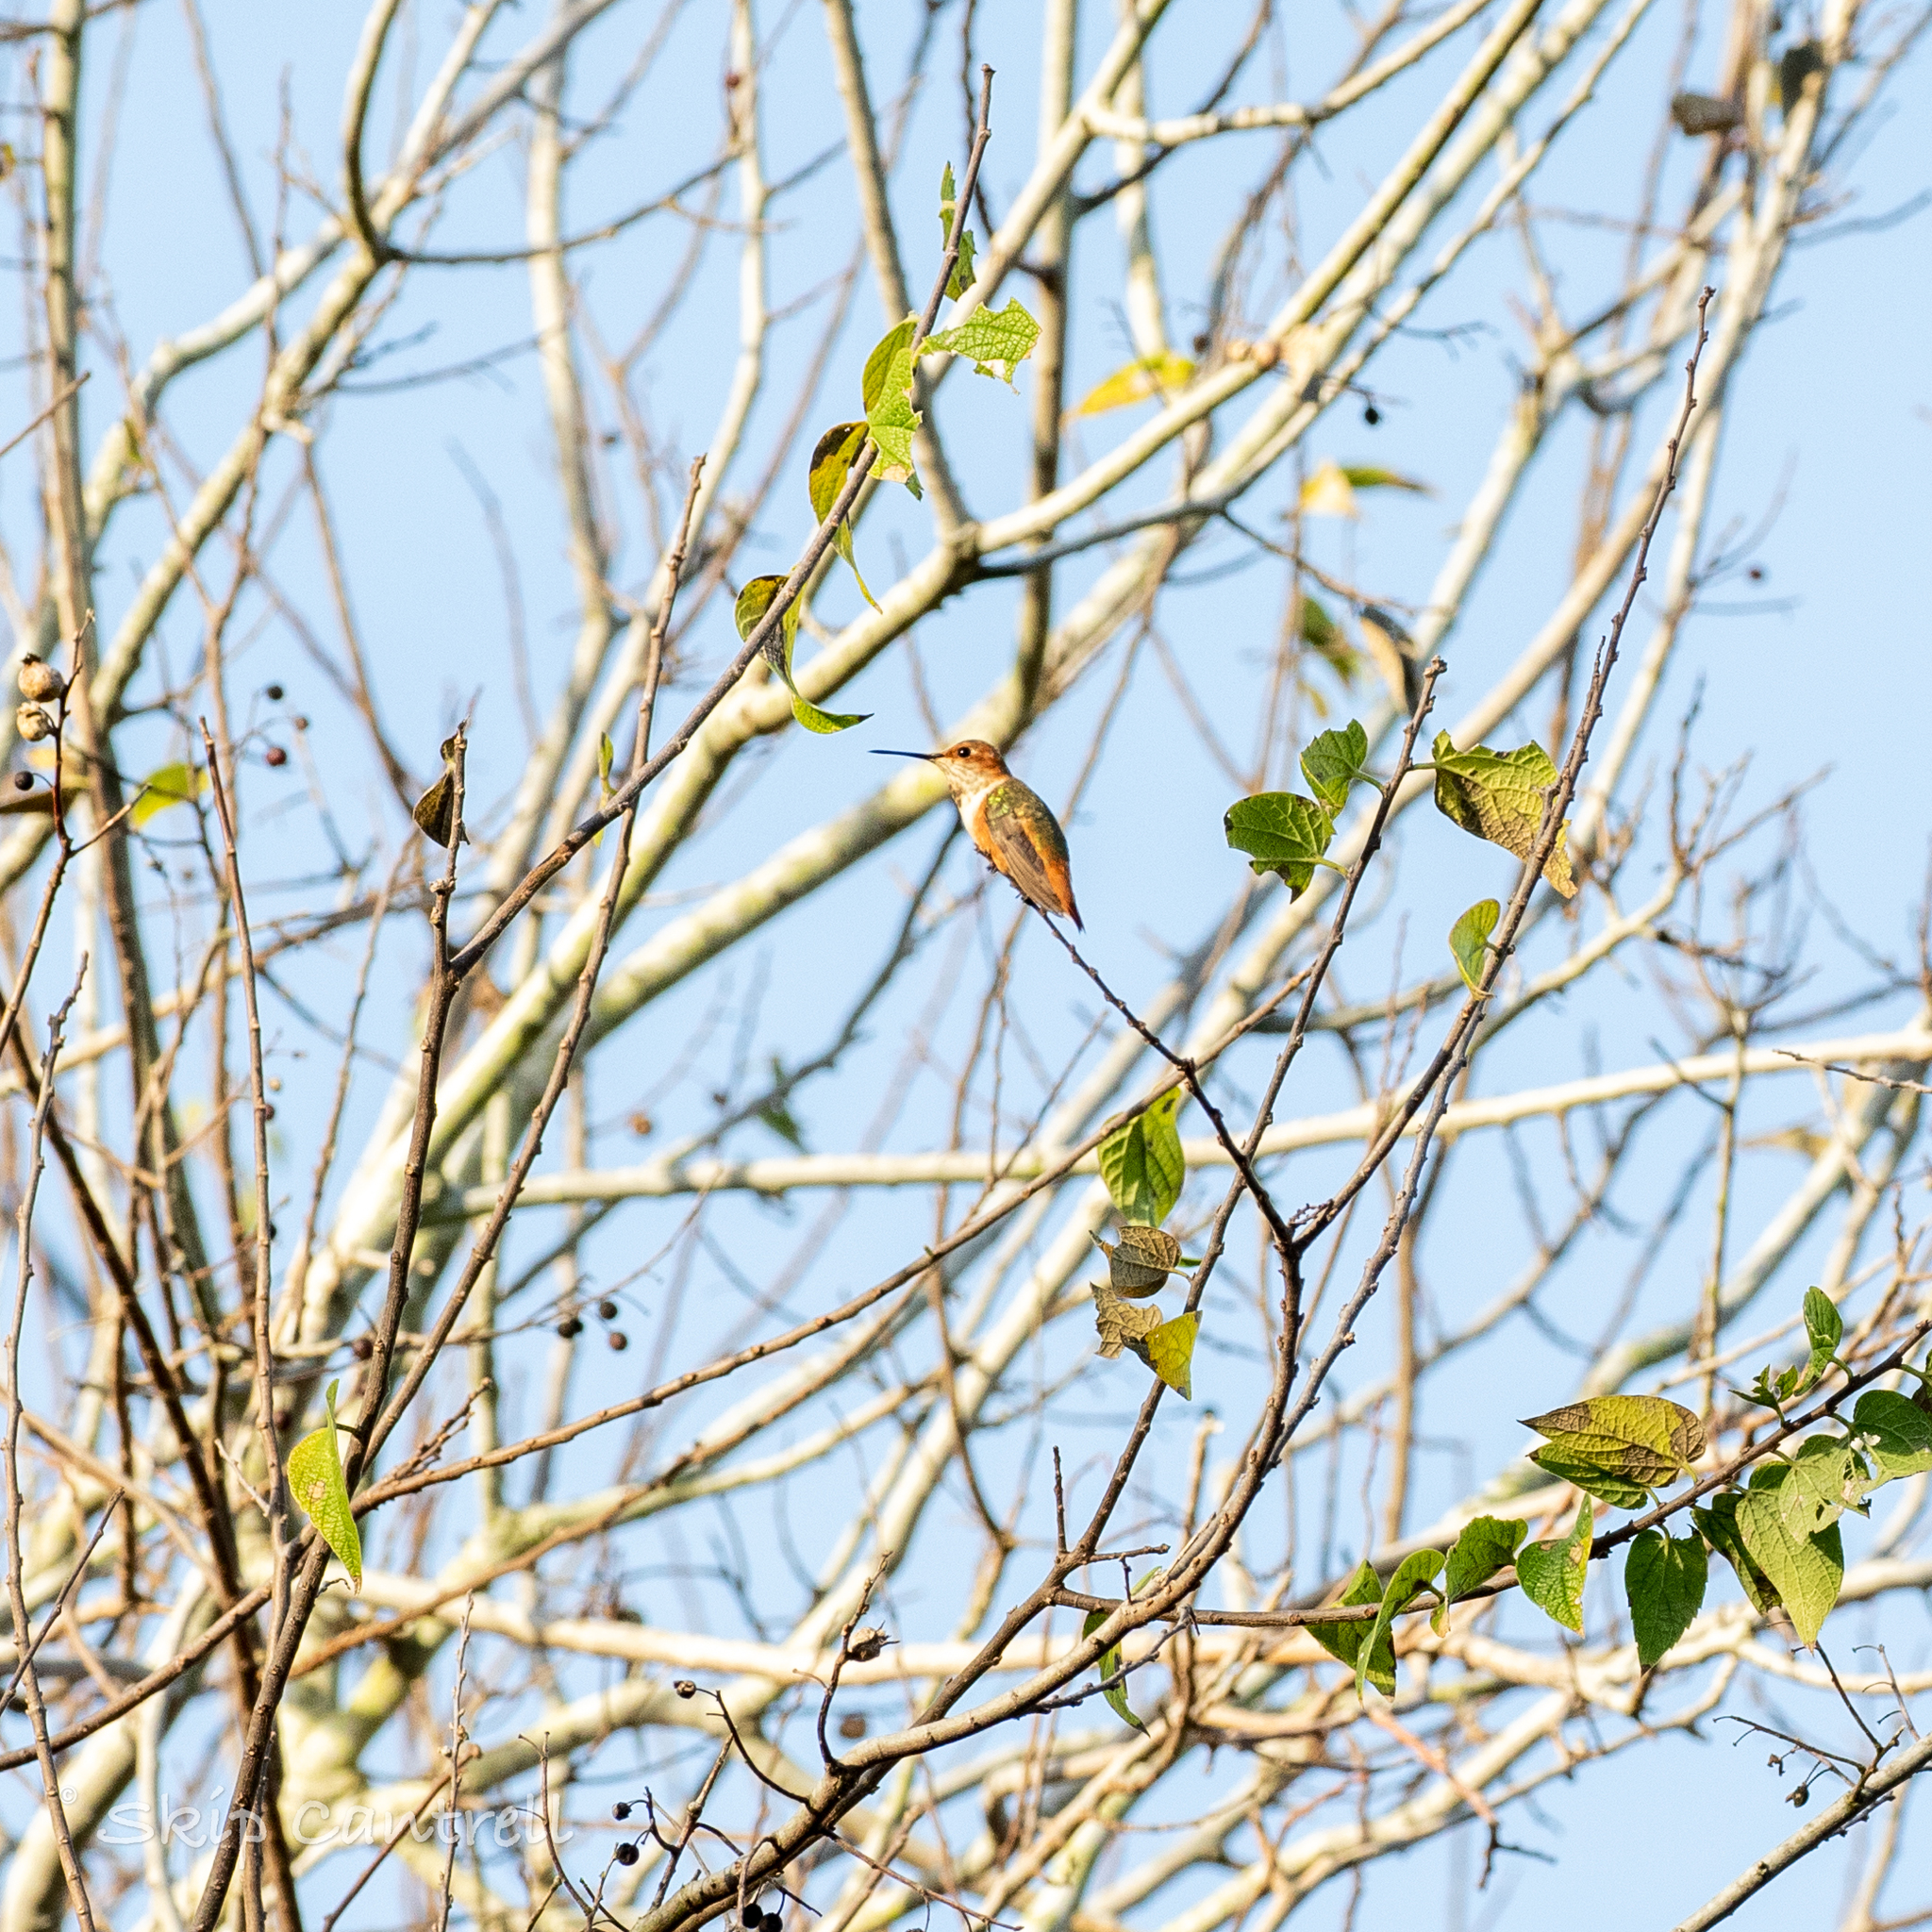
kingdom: Animalia
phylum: Chordata
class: Aves
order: Apodiformes
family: Trochilidae
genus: Selasphorus
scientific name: Selasphorus rufus
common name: Rufous hummingbird
